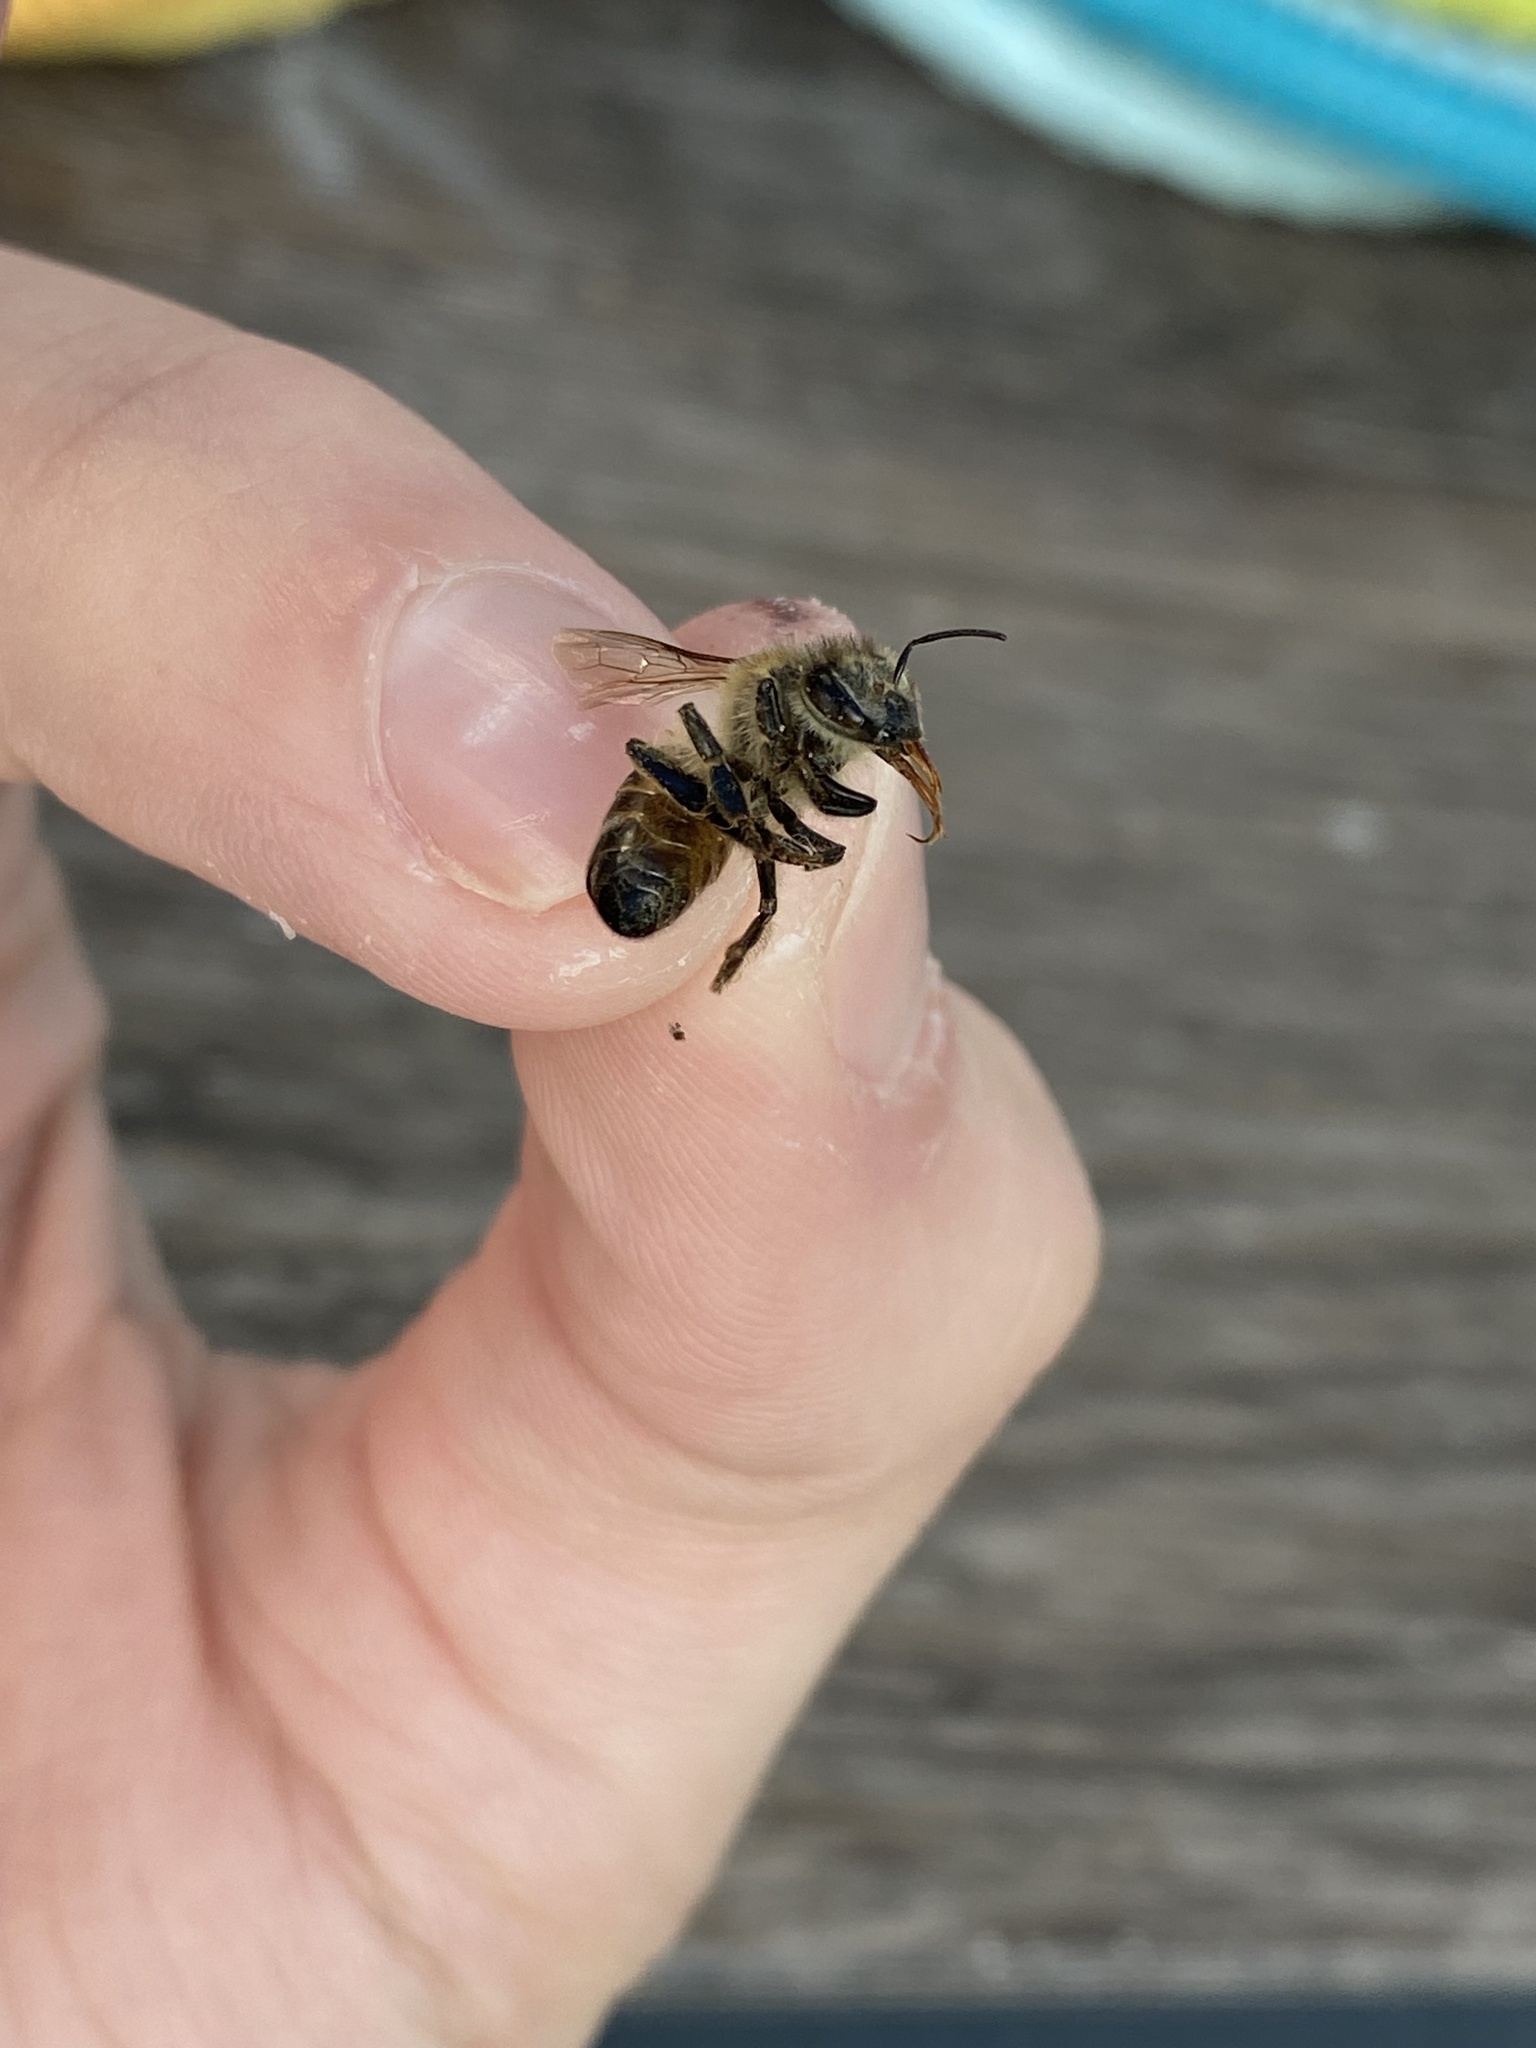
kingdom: Animalia
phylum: Arthropoda
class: Insecta
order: Hymenoptera
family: Apidae
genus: Apis
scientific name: Apis mellifera
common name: Honey bee
